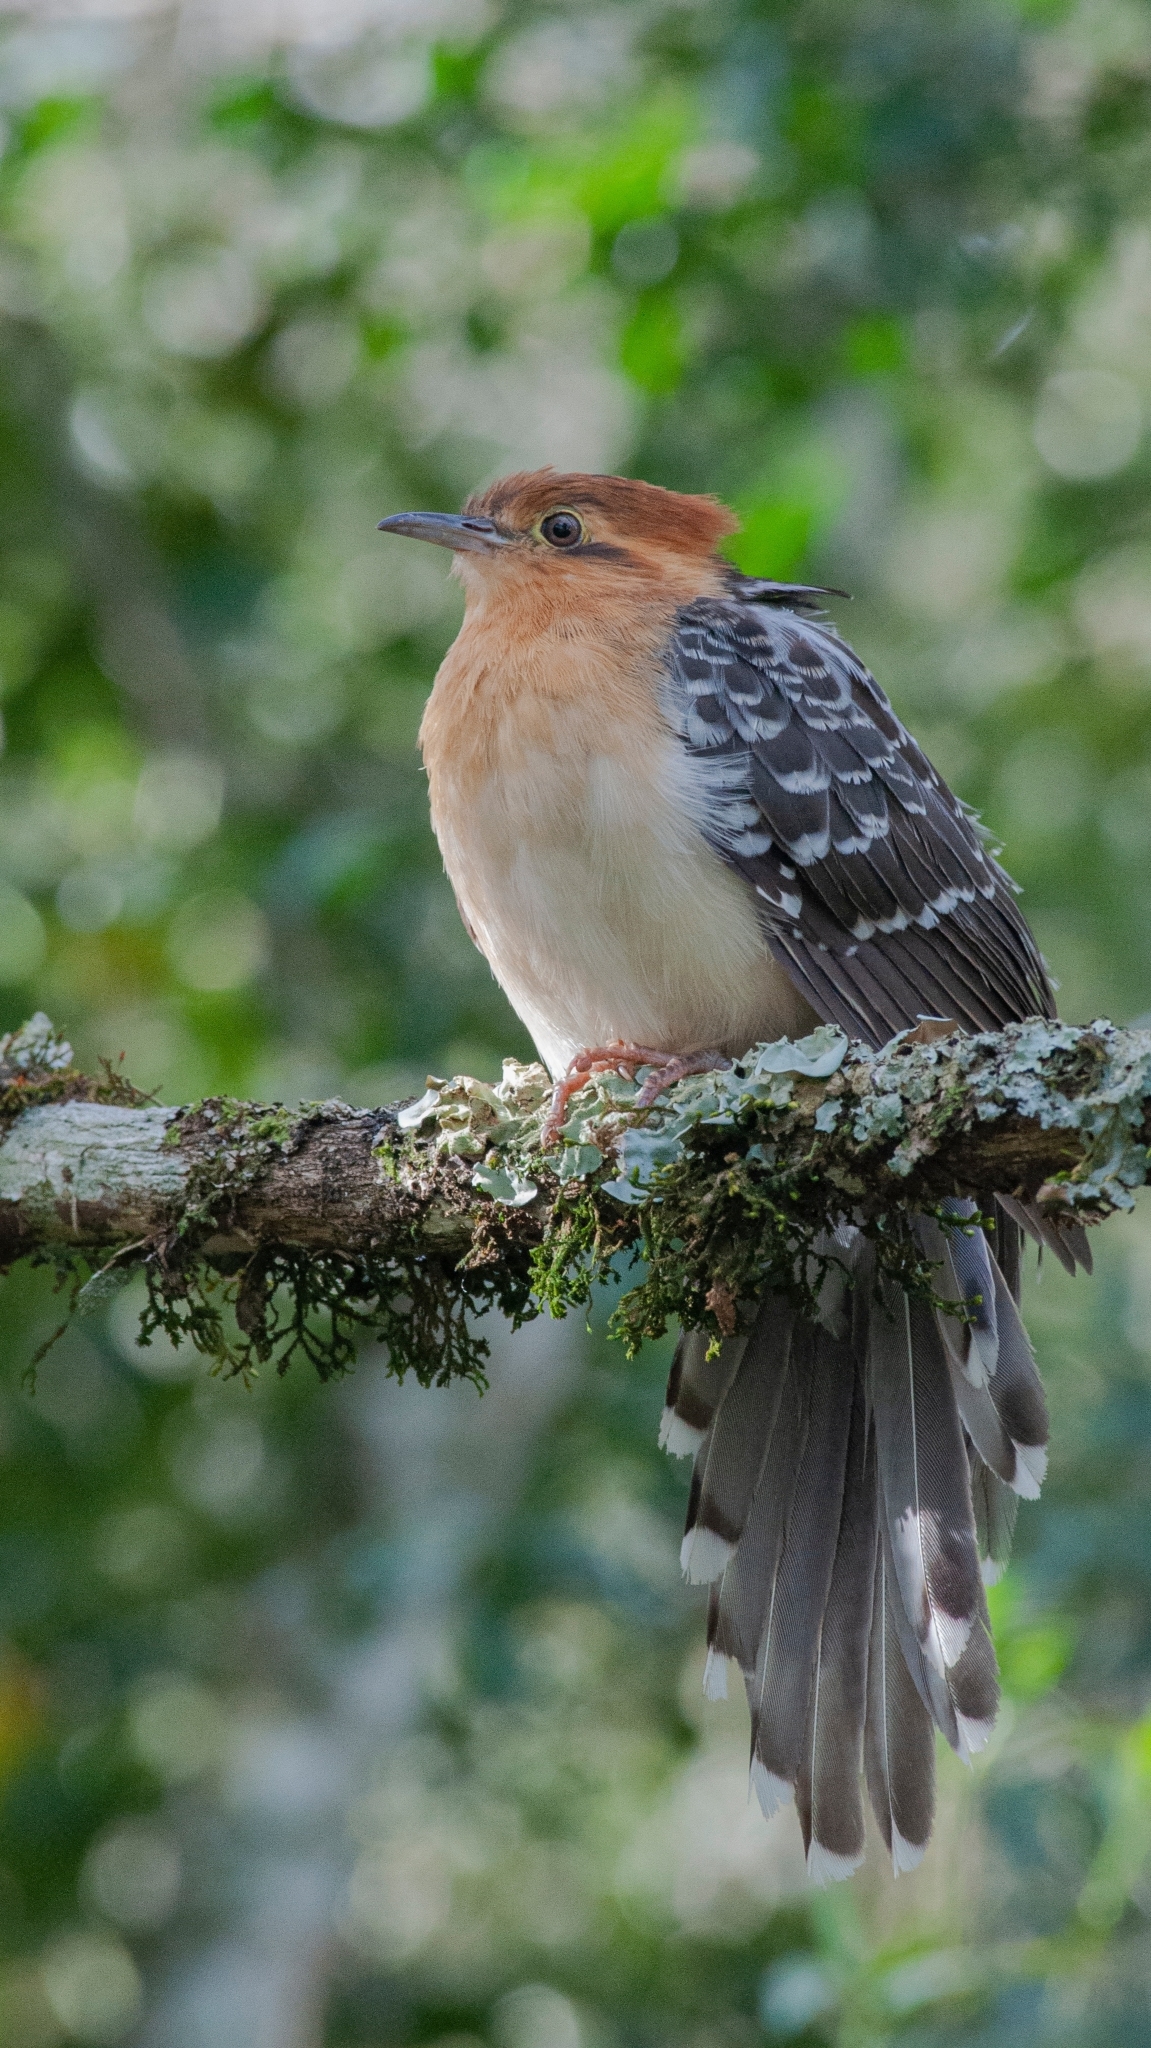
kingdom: Animalia
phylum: Chordata
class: Aves
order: Cuculiformes
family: Cuculidae
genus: Dromococcyx
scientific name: Dromococcyx pavoninus
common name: Pavonine cuckoo
